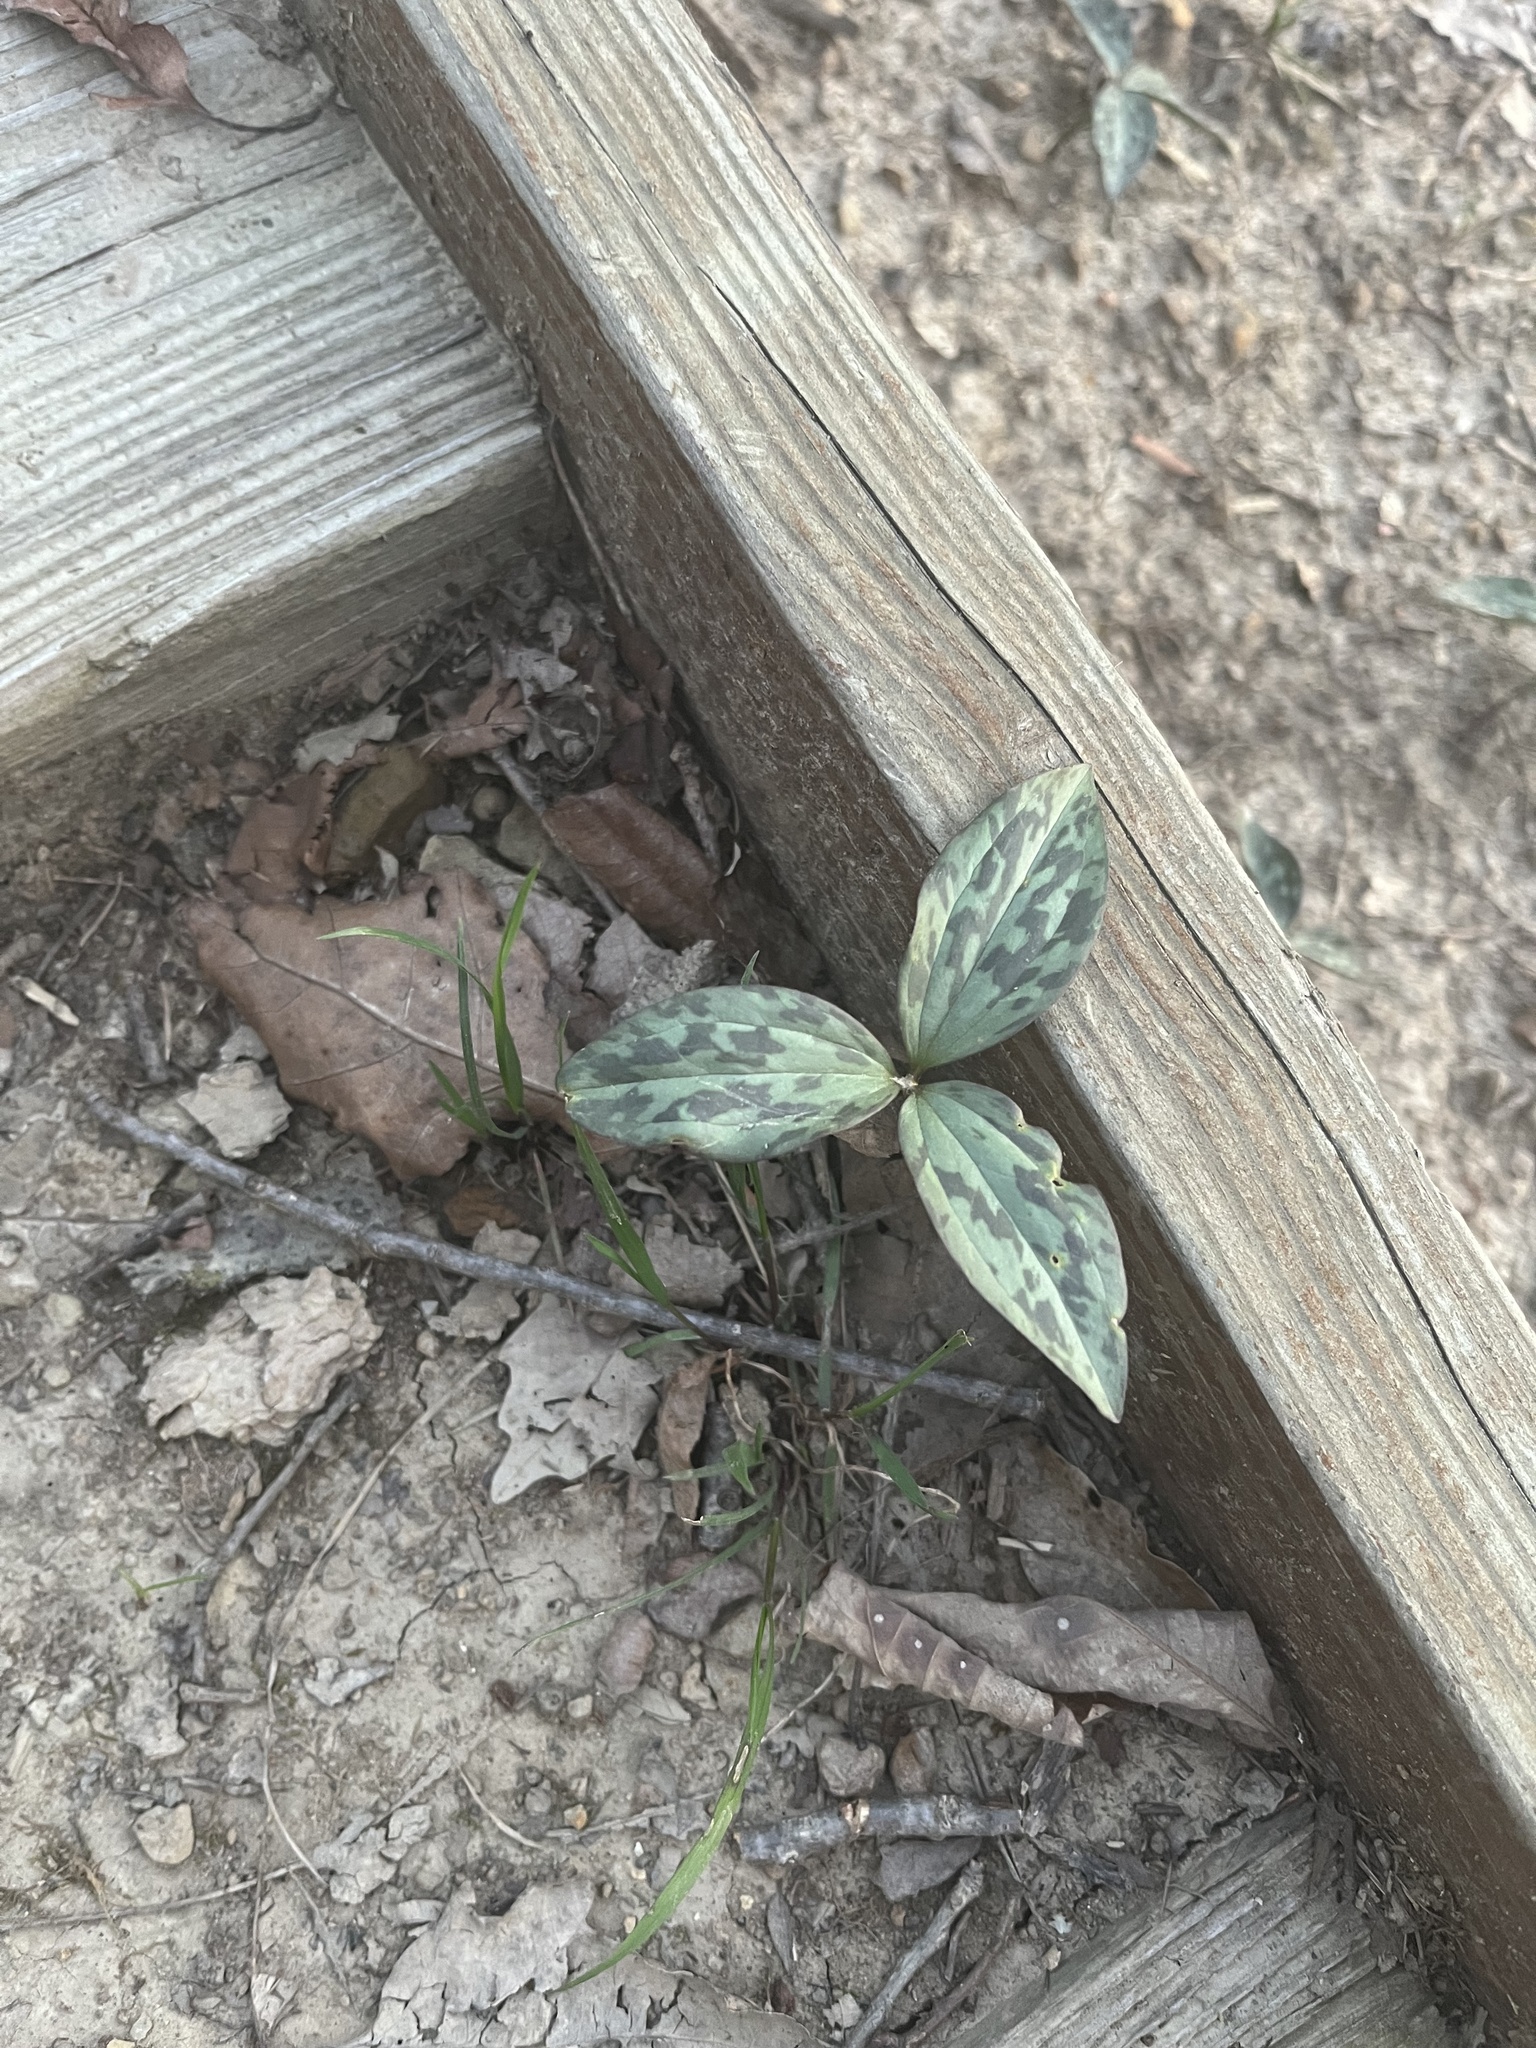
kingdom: Plantae
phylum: Tracheophyta
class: Liliopsida
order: Liliales
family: Melanthiaceae
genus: Trillium
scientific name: Trillium recurvatum
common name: Bloody butcher
